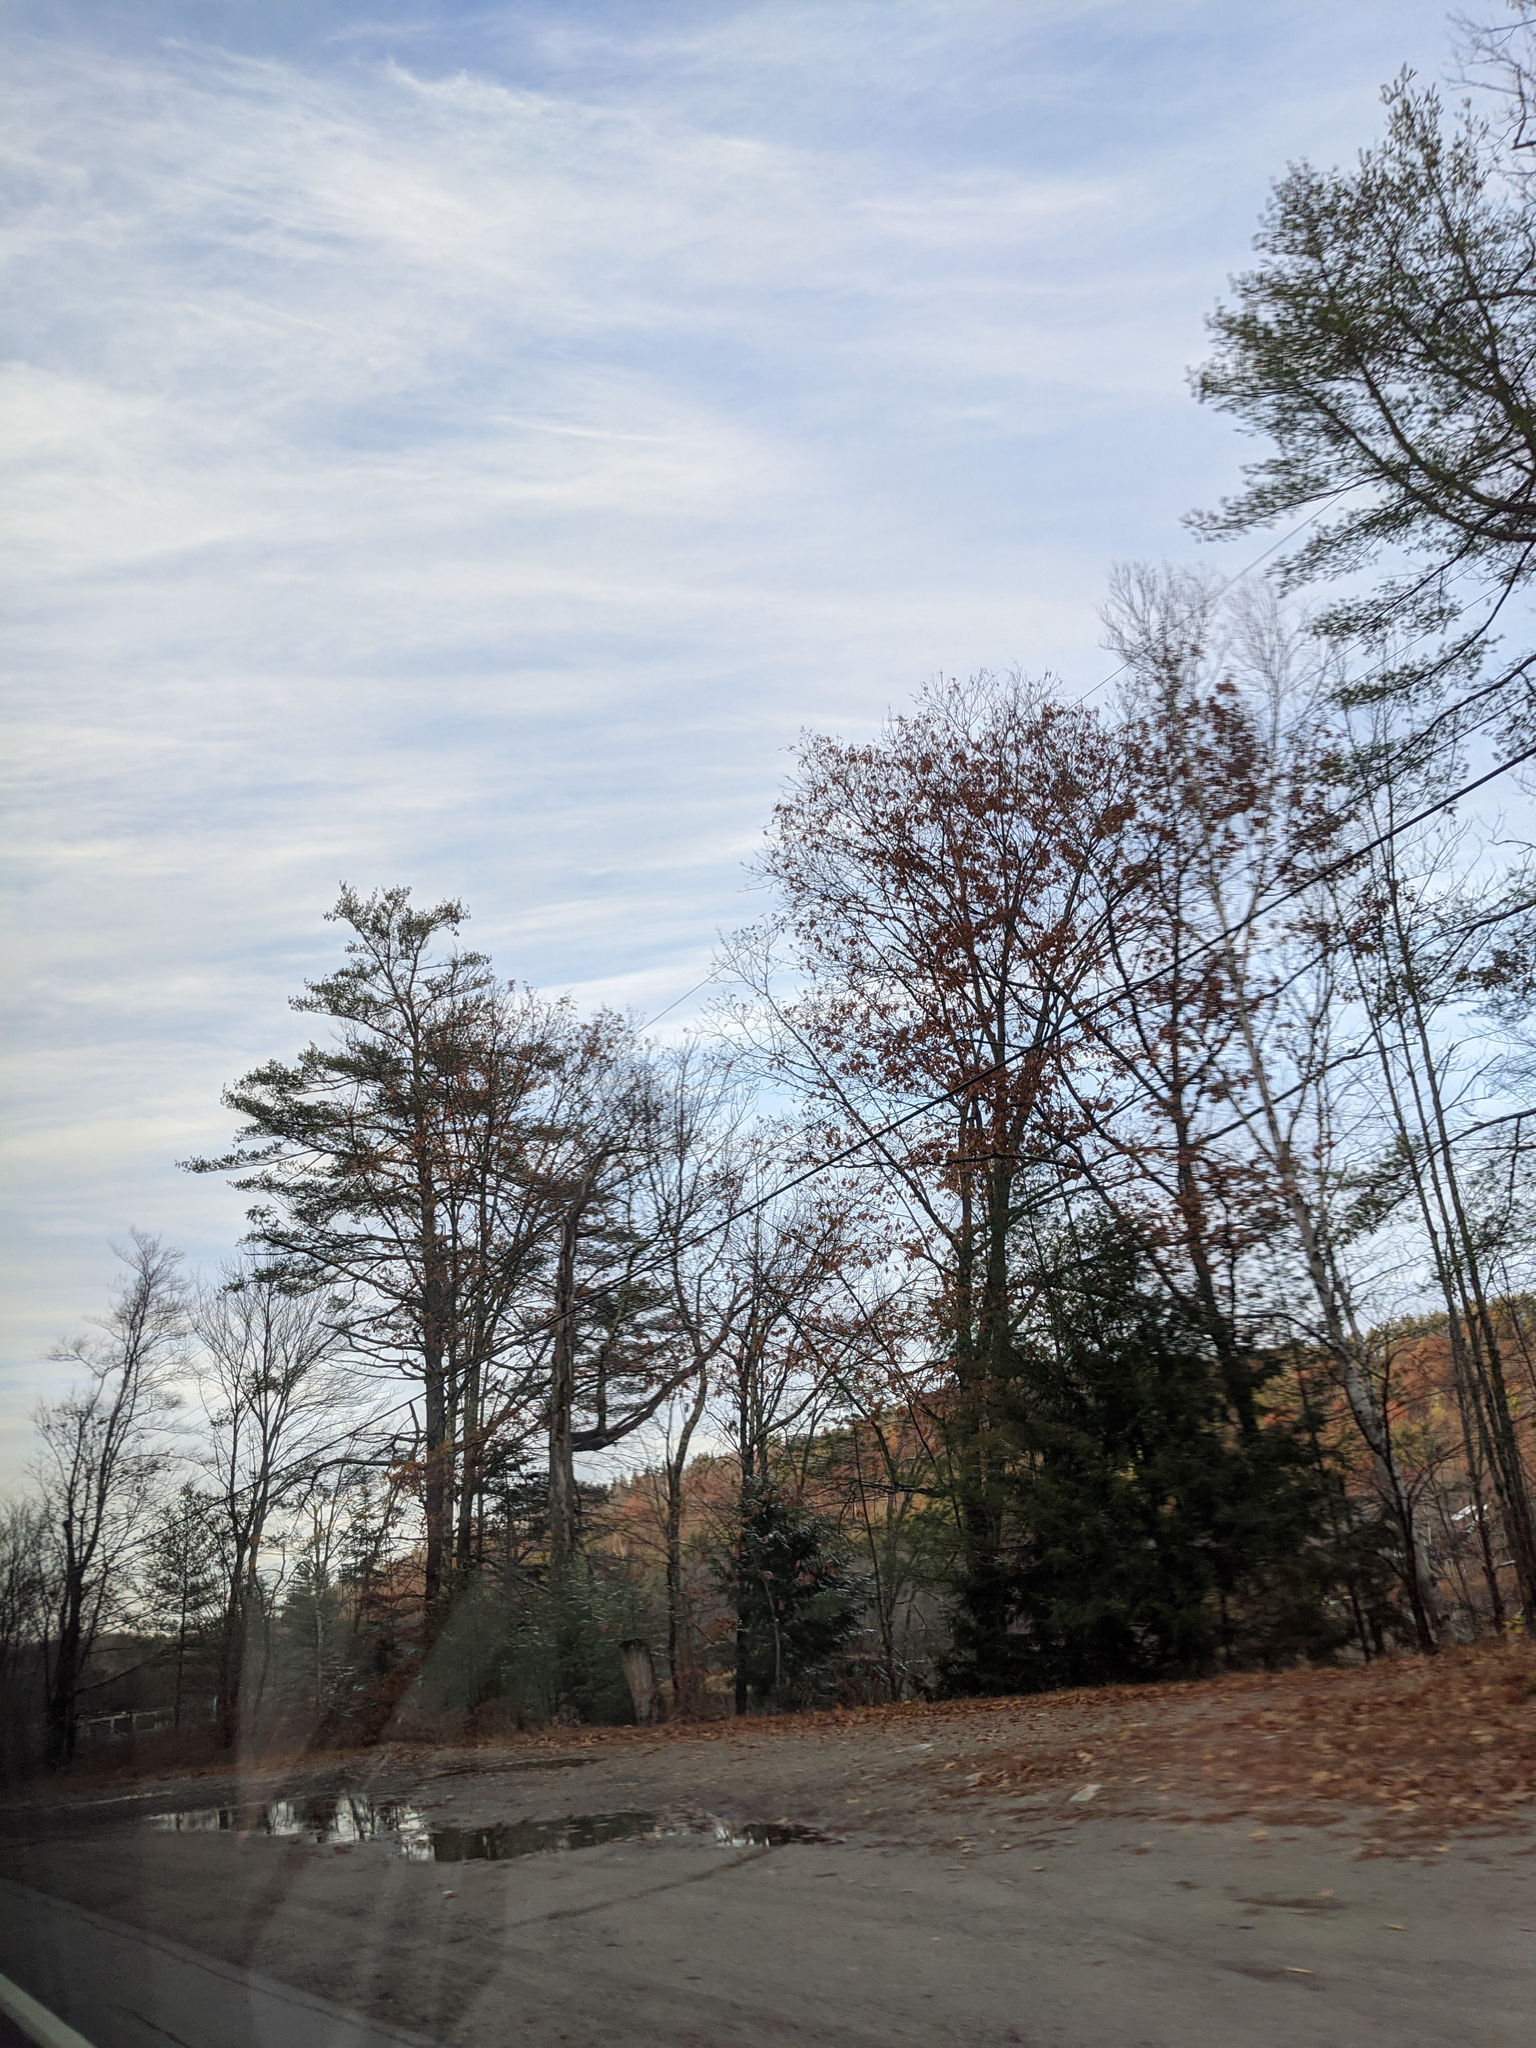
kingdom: Plantae
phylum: Tracheophyta
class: Magnoliopsida
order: Fagales
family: Fagaceae
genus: Quercus
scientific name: Quercus rubra
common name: Red oak
